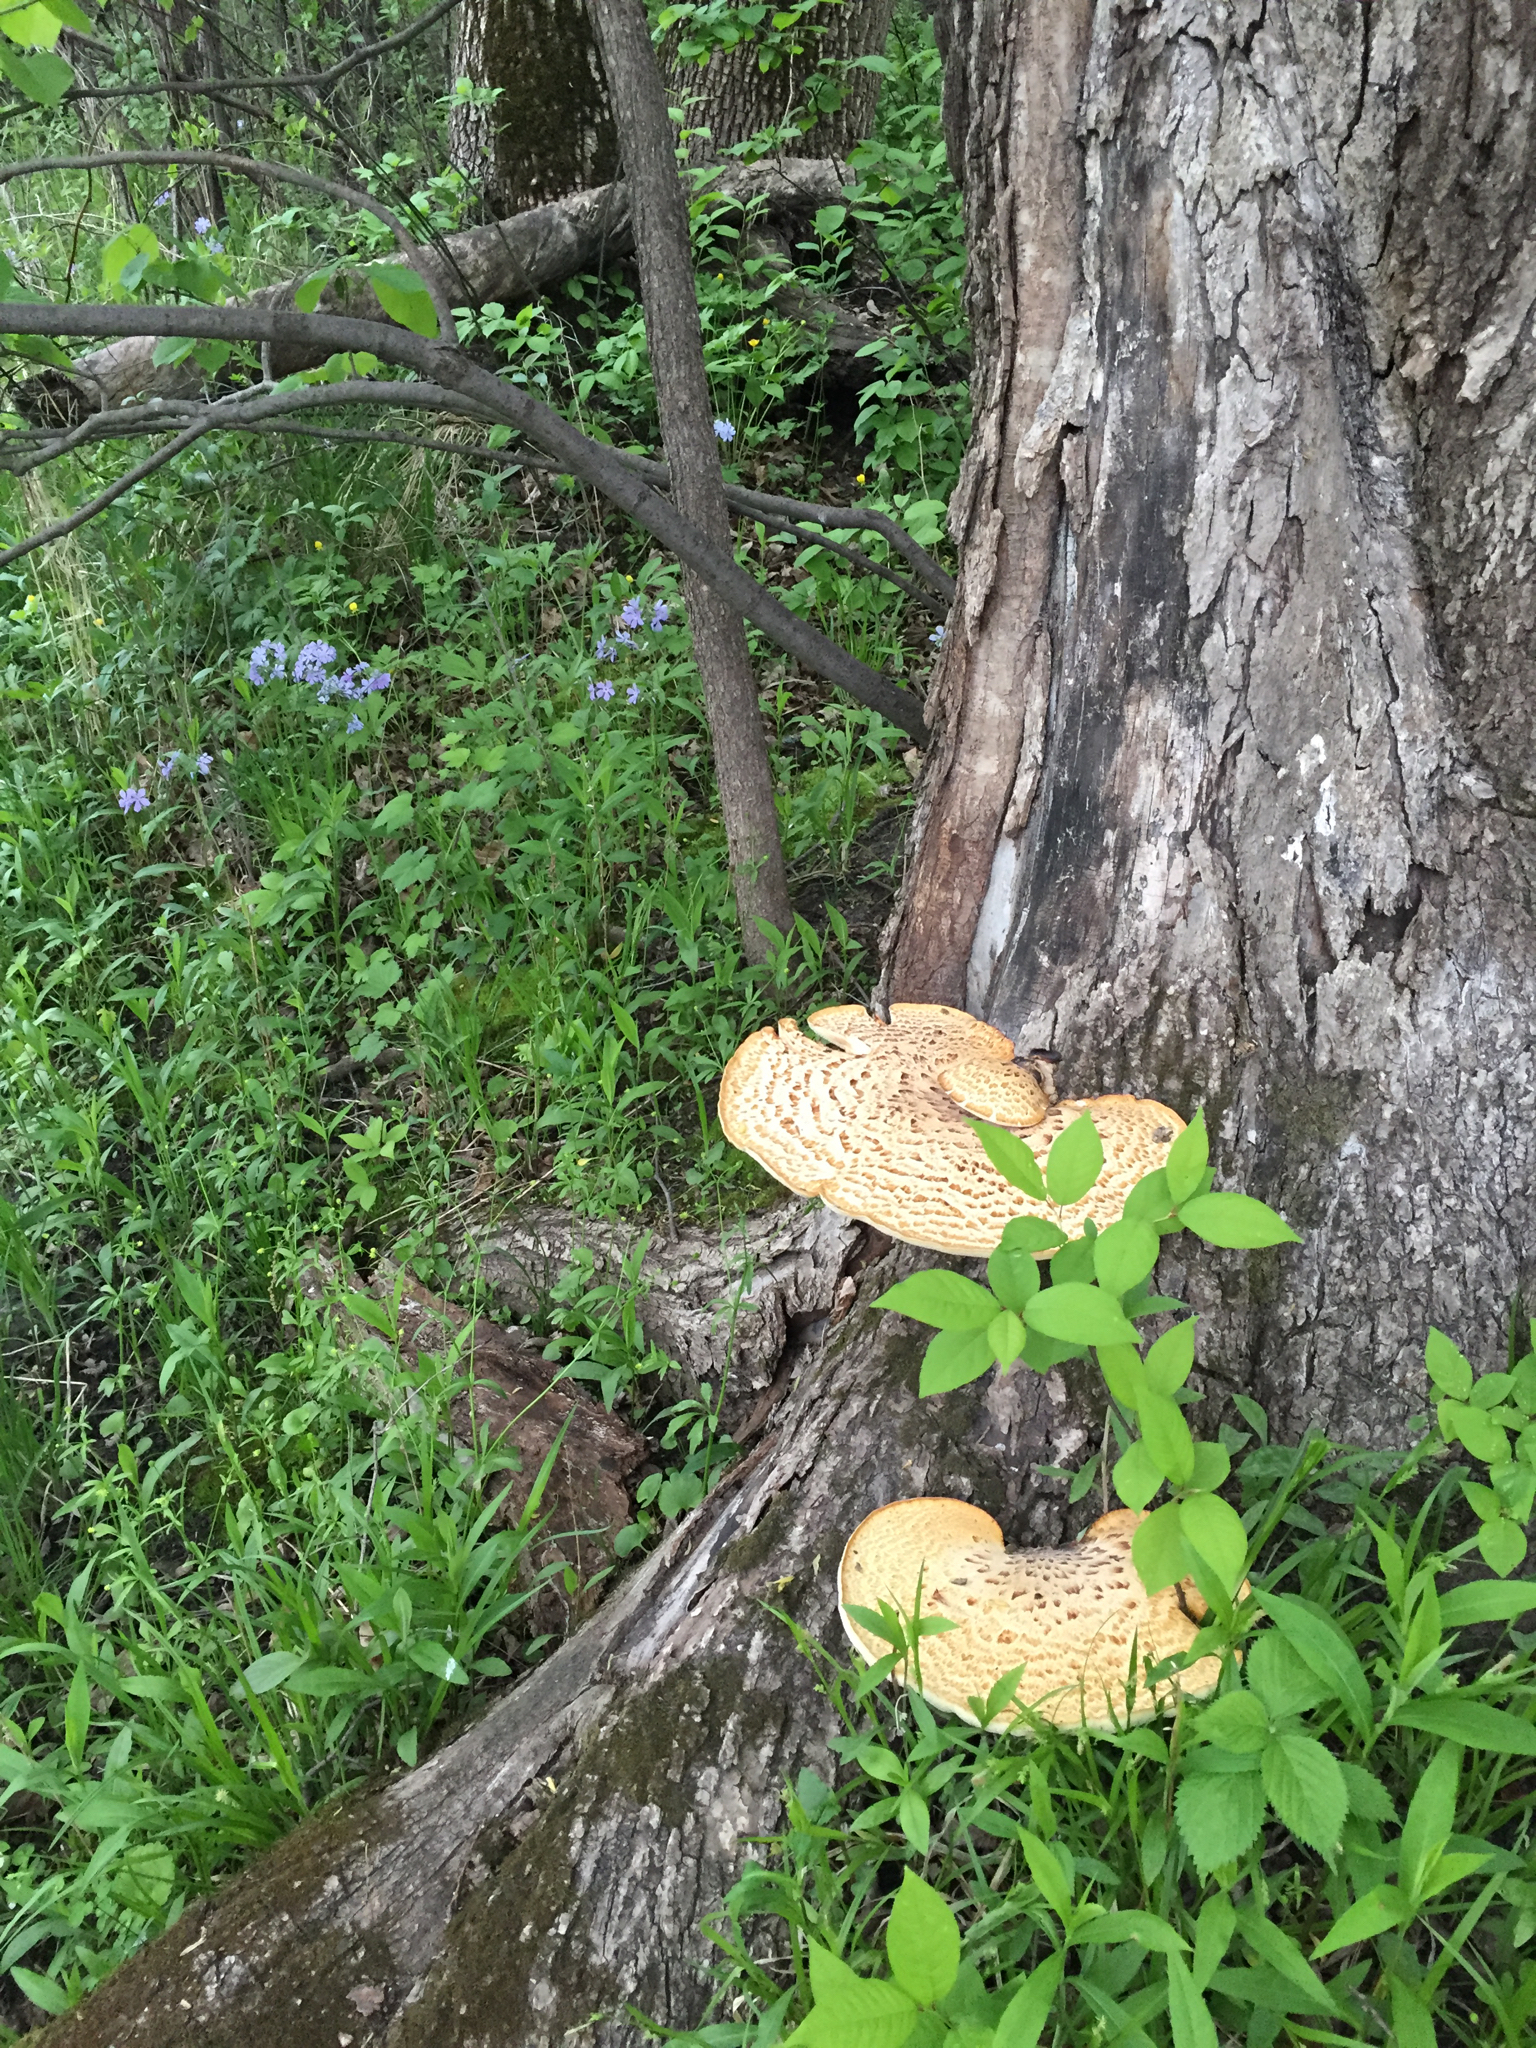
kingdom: Fungi
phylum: Basidiomycota
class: Agaricomycetes
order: Polyporales
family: Polyporaceae
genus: Cerioporus
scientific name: Cerioporus squamosus
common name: Dryad's saddle
